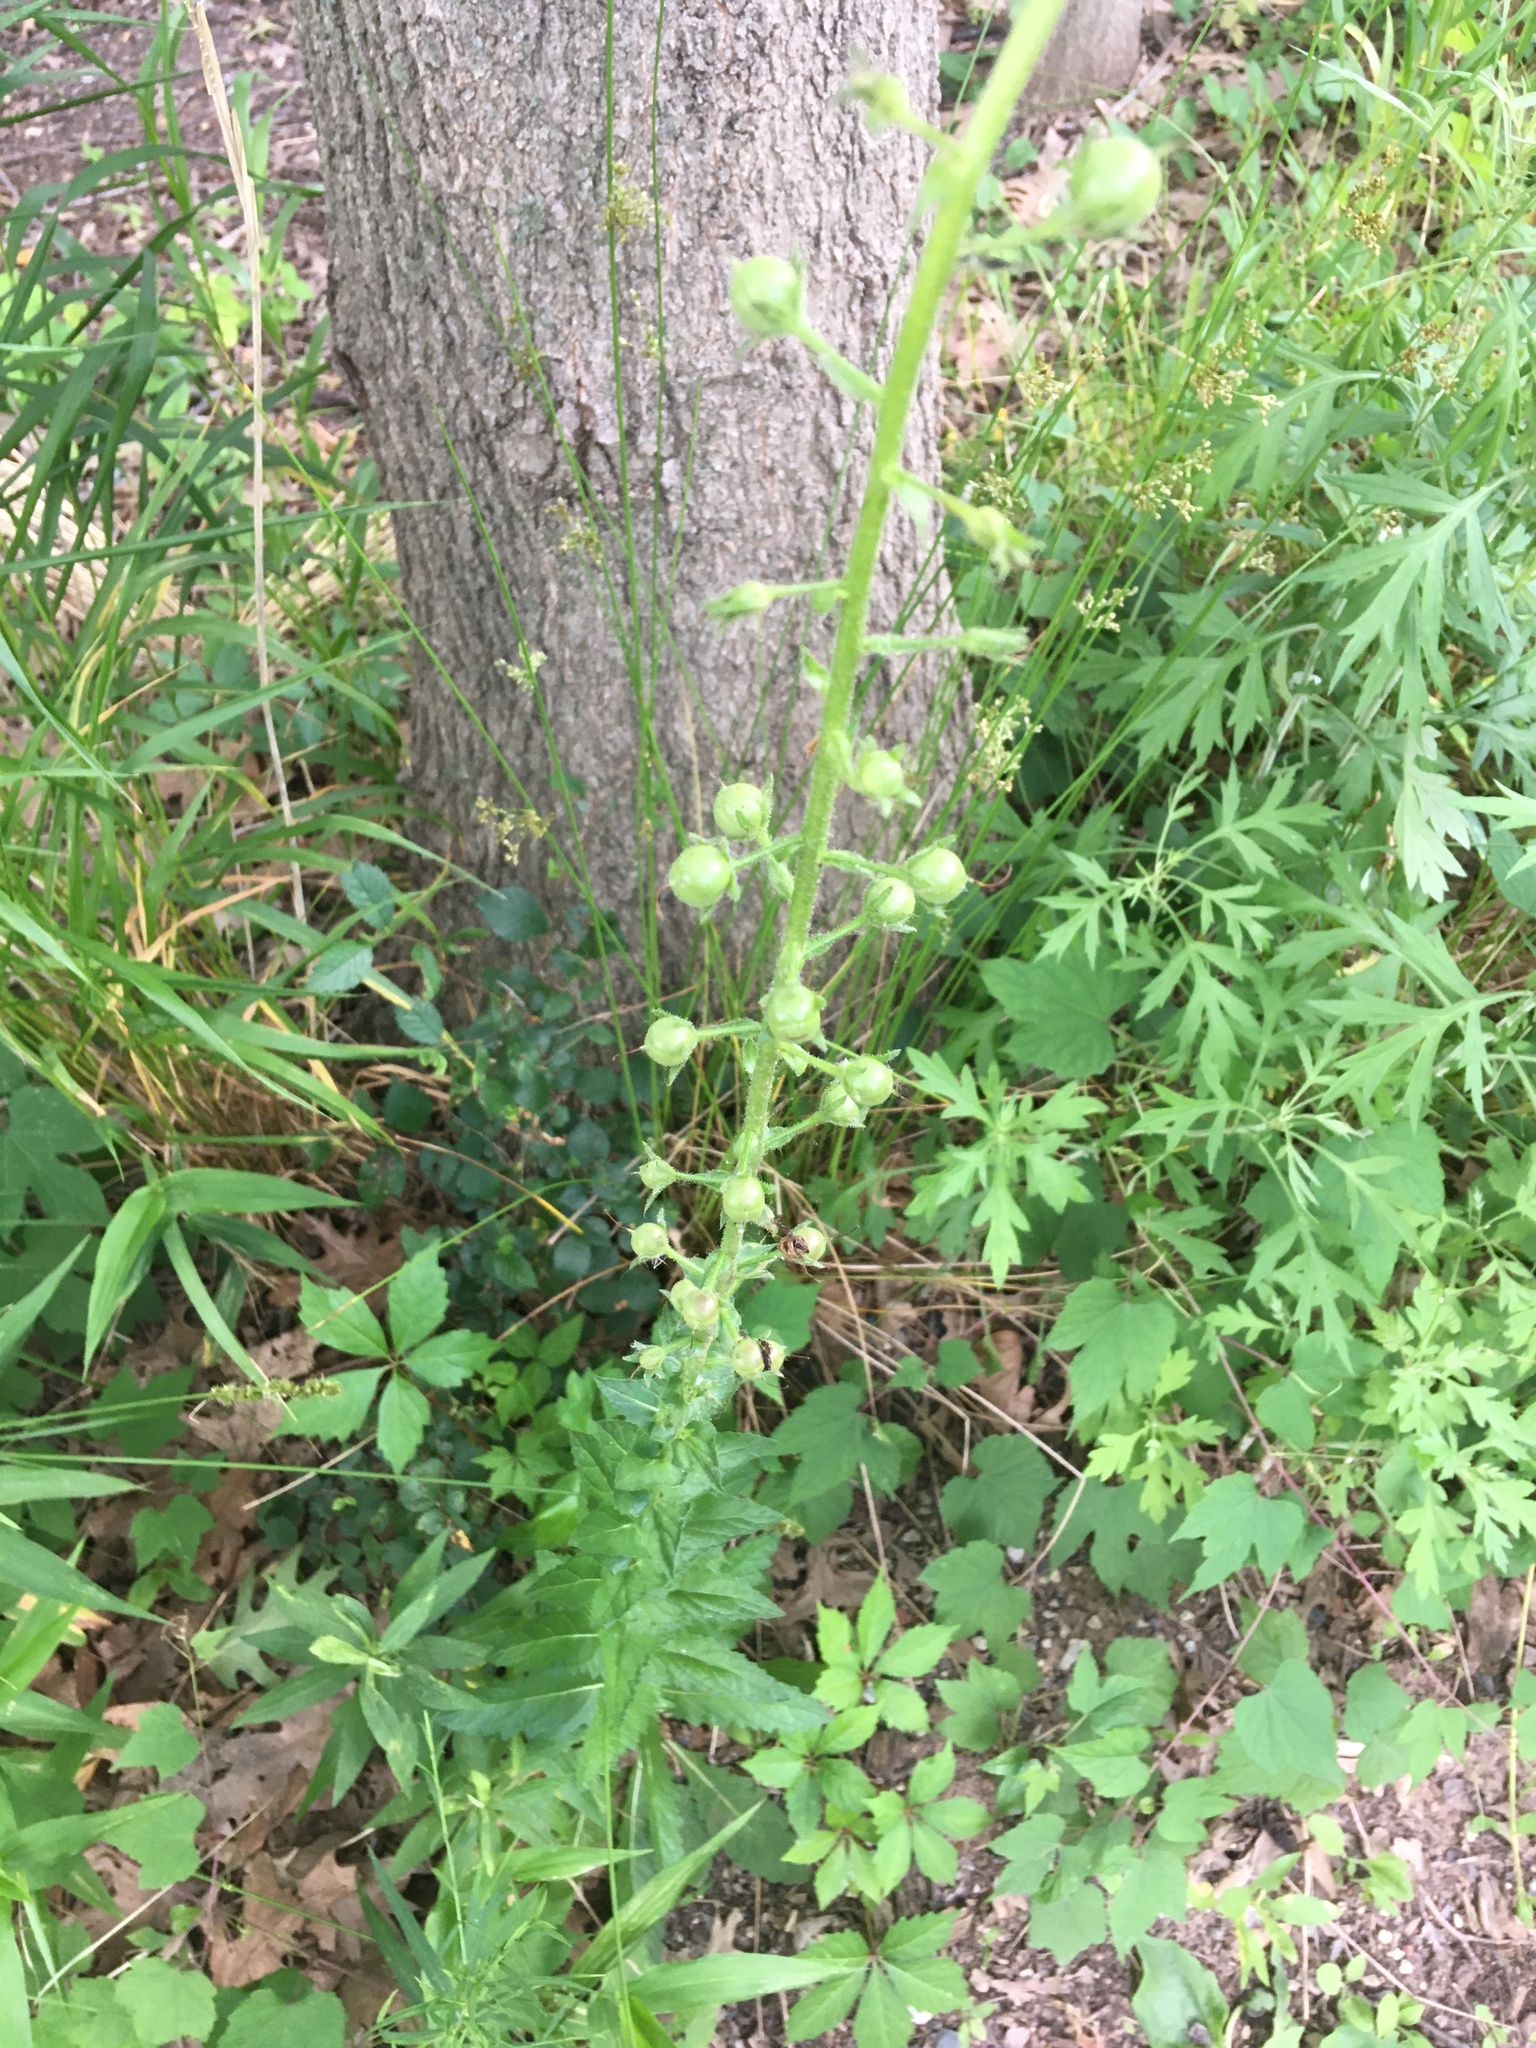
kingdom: Plantae
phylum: Tracheophyta
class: Magnoliopsida
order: Lamiales
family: Scrophulariaceae
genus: Verbascum
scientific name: Verbascum blattaria
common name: Moth mullein
